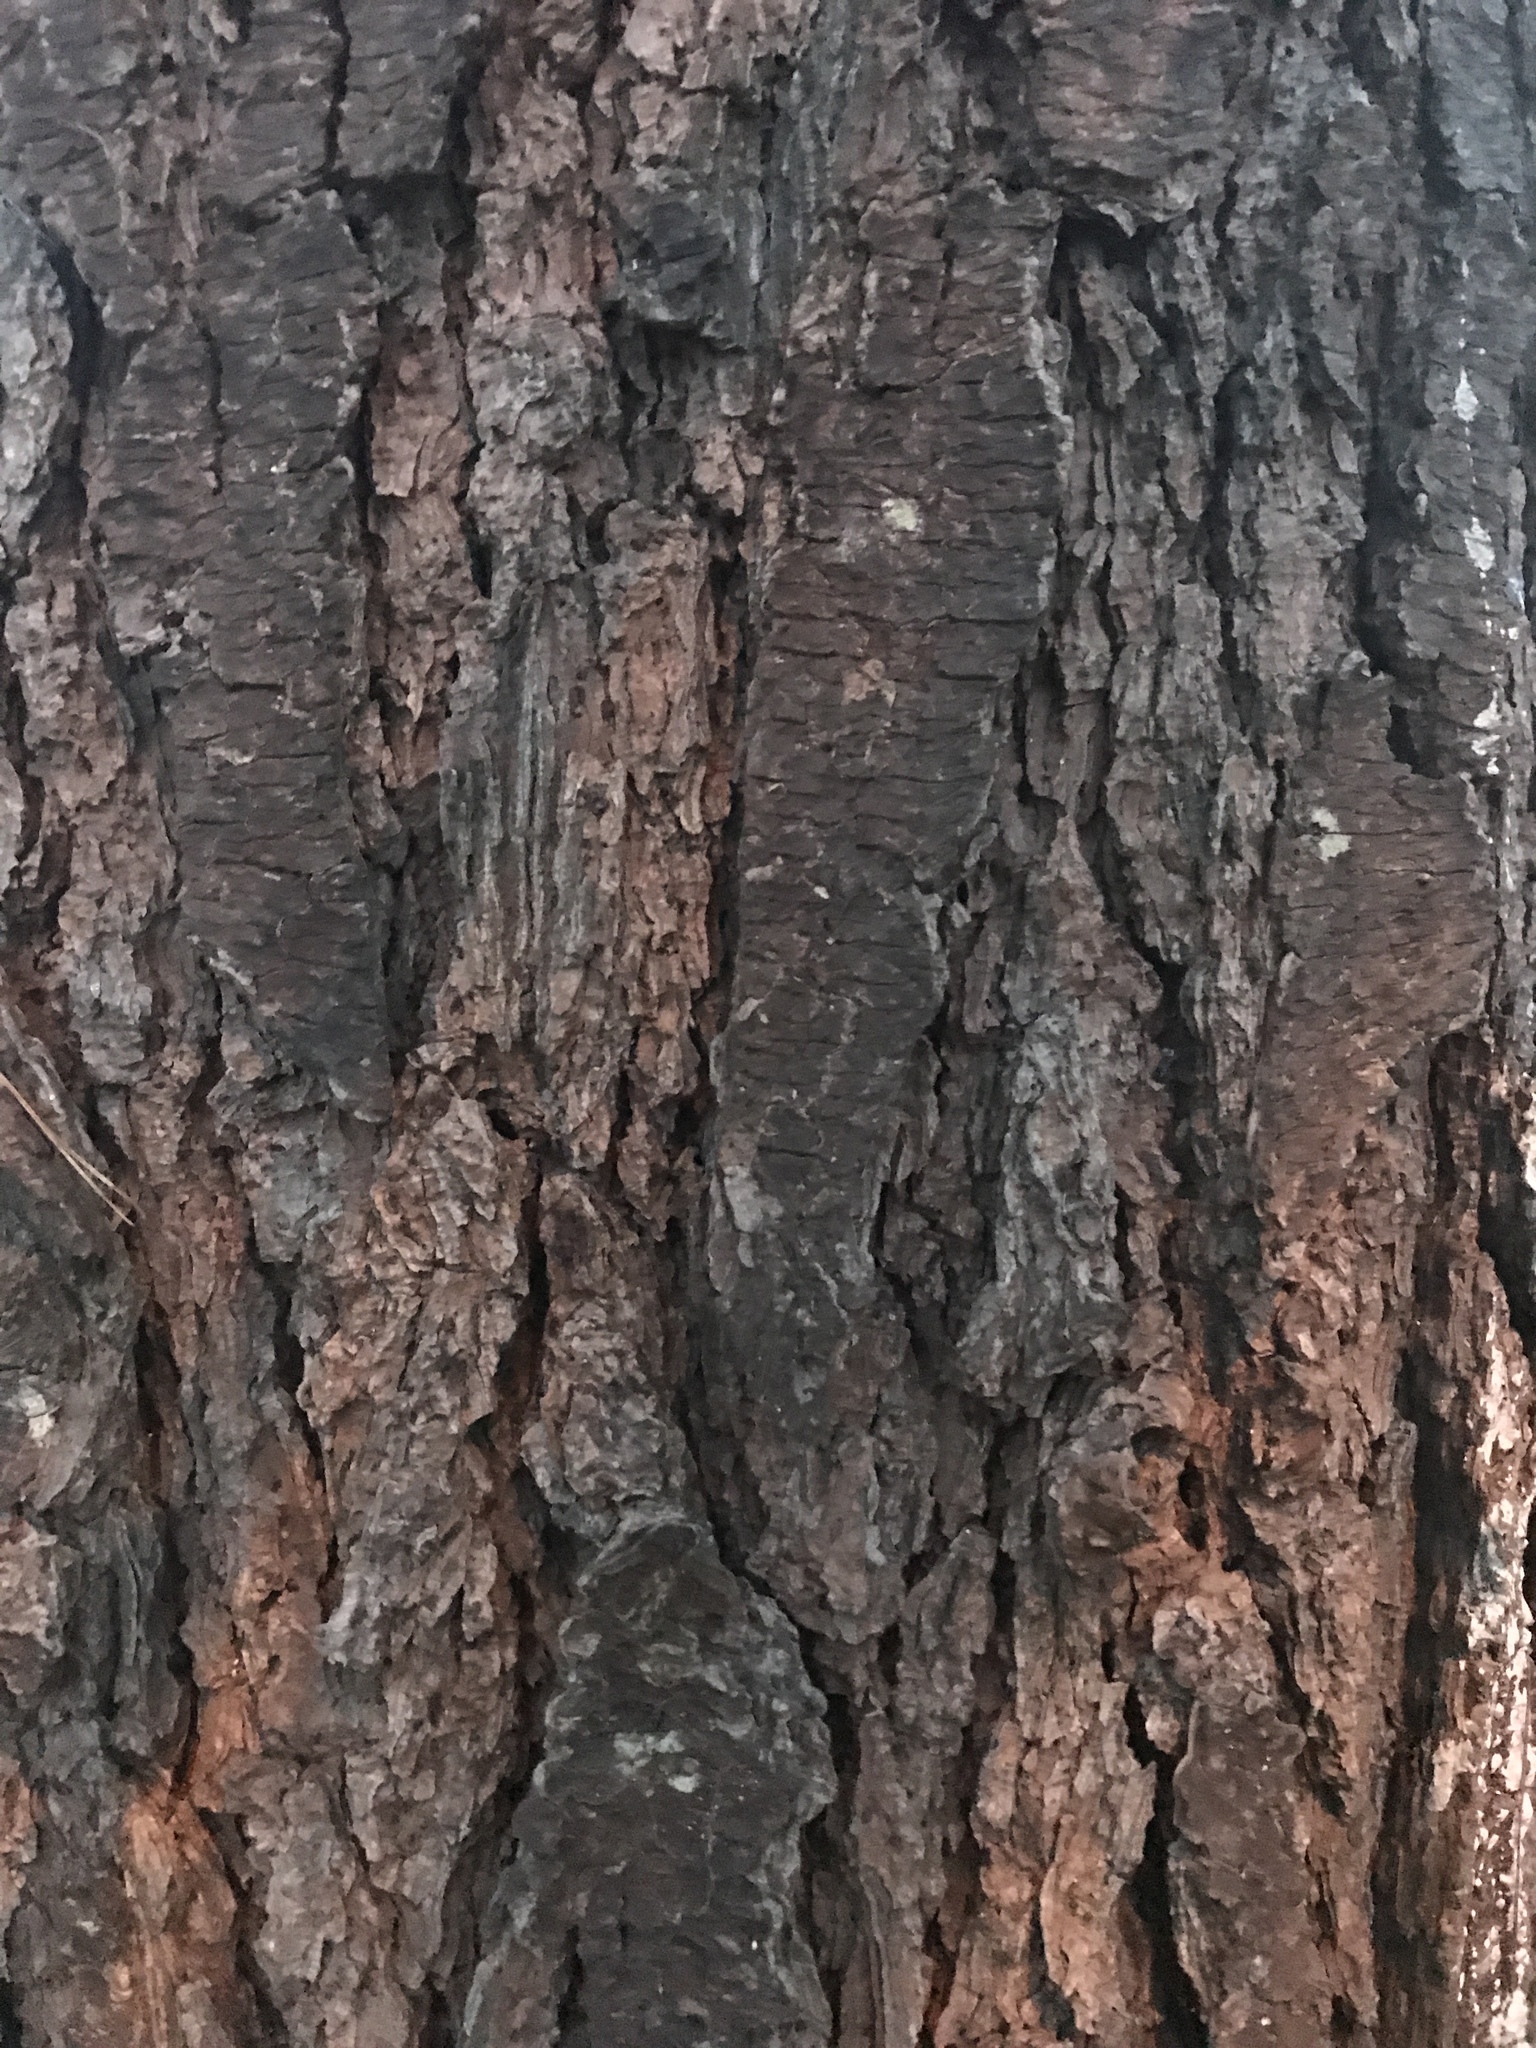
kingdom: Plantae
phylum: Tracheophyta
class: Pinopsida
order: Pinales
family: Pinaceae
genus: Pinus
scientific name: Pinus strobus
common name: Weymouth pine
